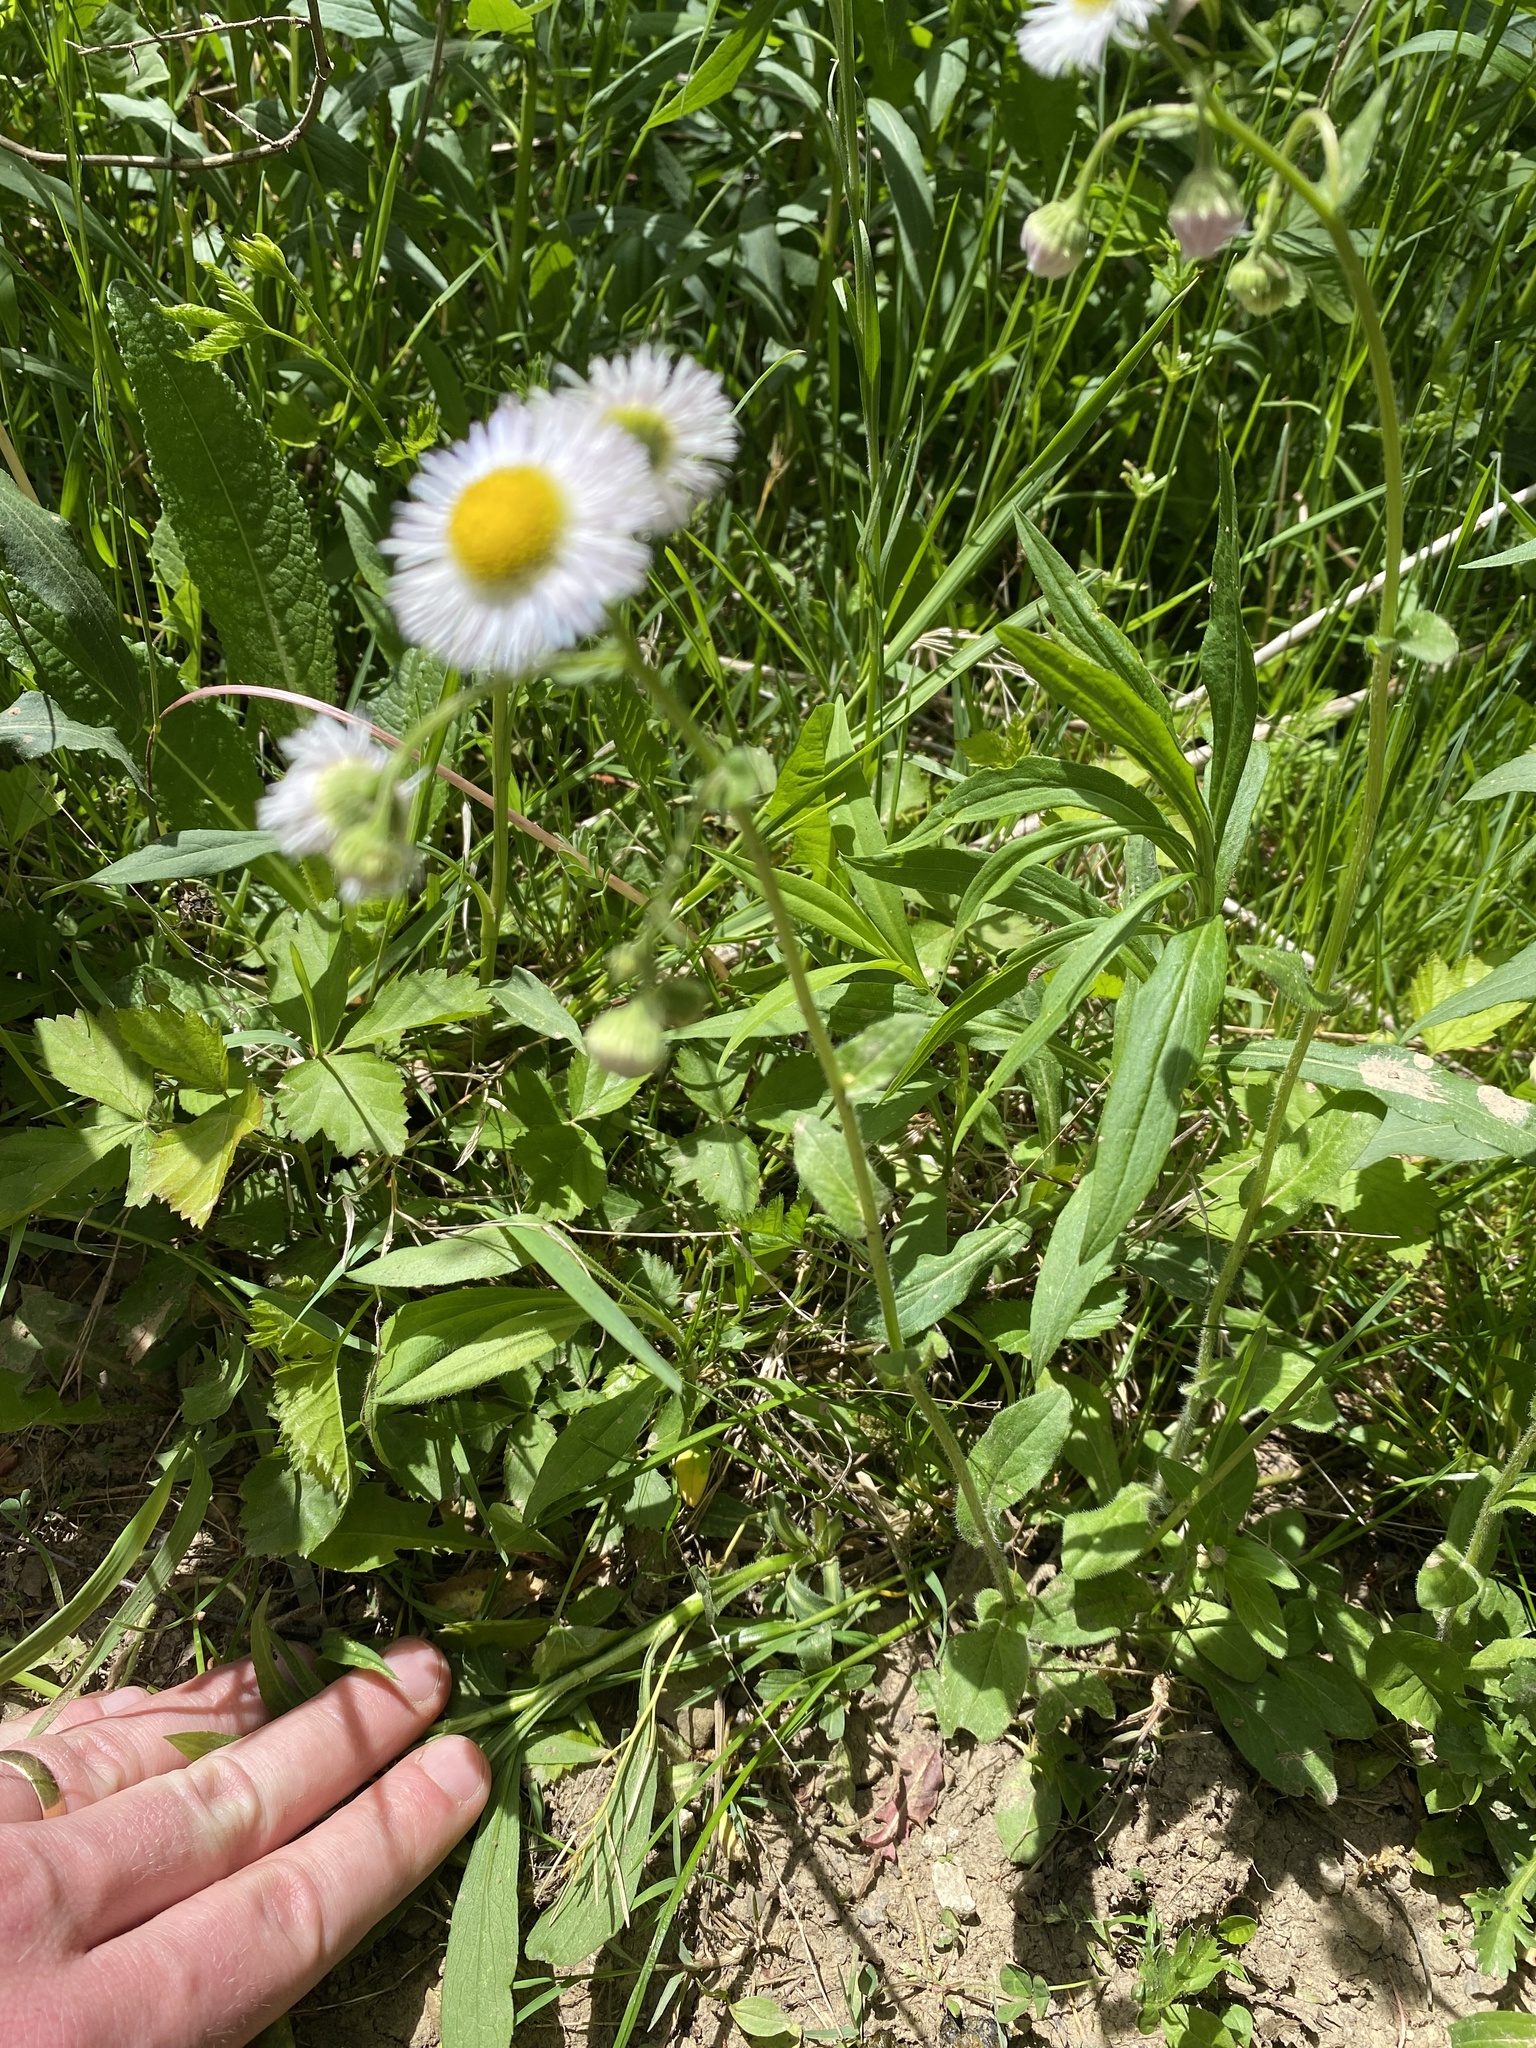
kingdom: Plantae
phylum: Tracheophyta
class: Magnoliopsida
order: Asterales
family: Asteraceae
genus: Erigeron
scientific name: Erigeron philadelphicus
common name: Robin's-plantain
